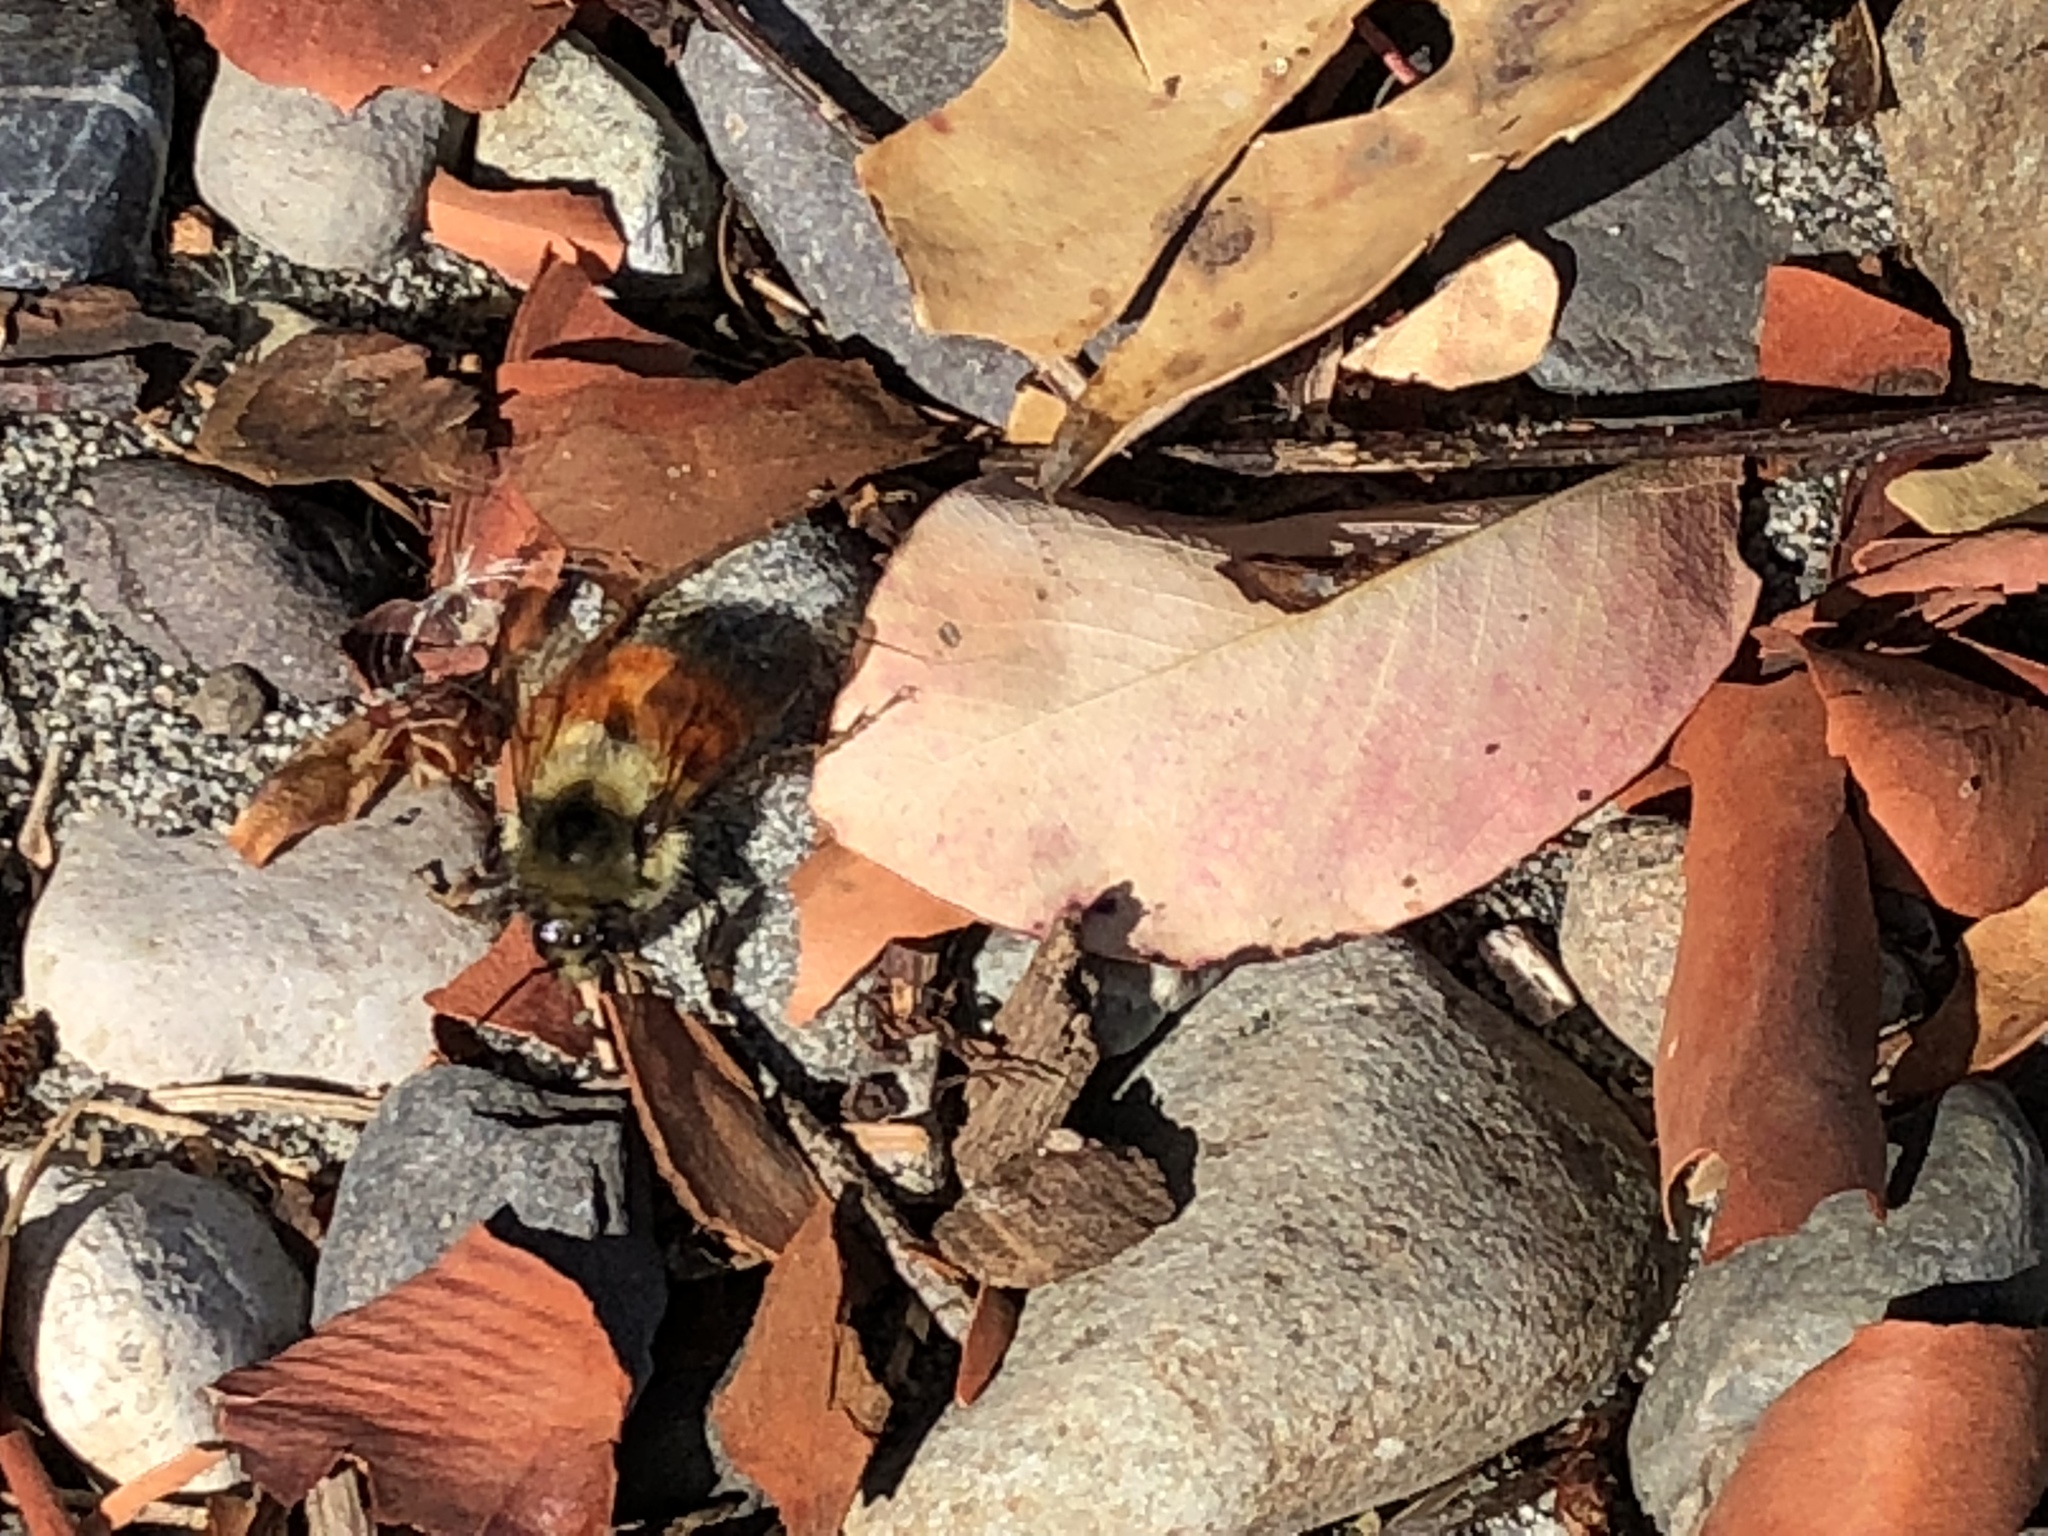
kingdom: Animalia
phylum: Arthropoda
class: Insecta
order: Hymenoptera
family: Apidae
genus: Bombus
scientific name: Bombus melanopygus
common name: Black tail bumble bee
